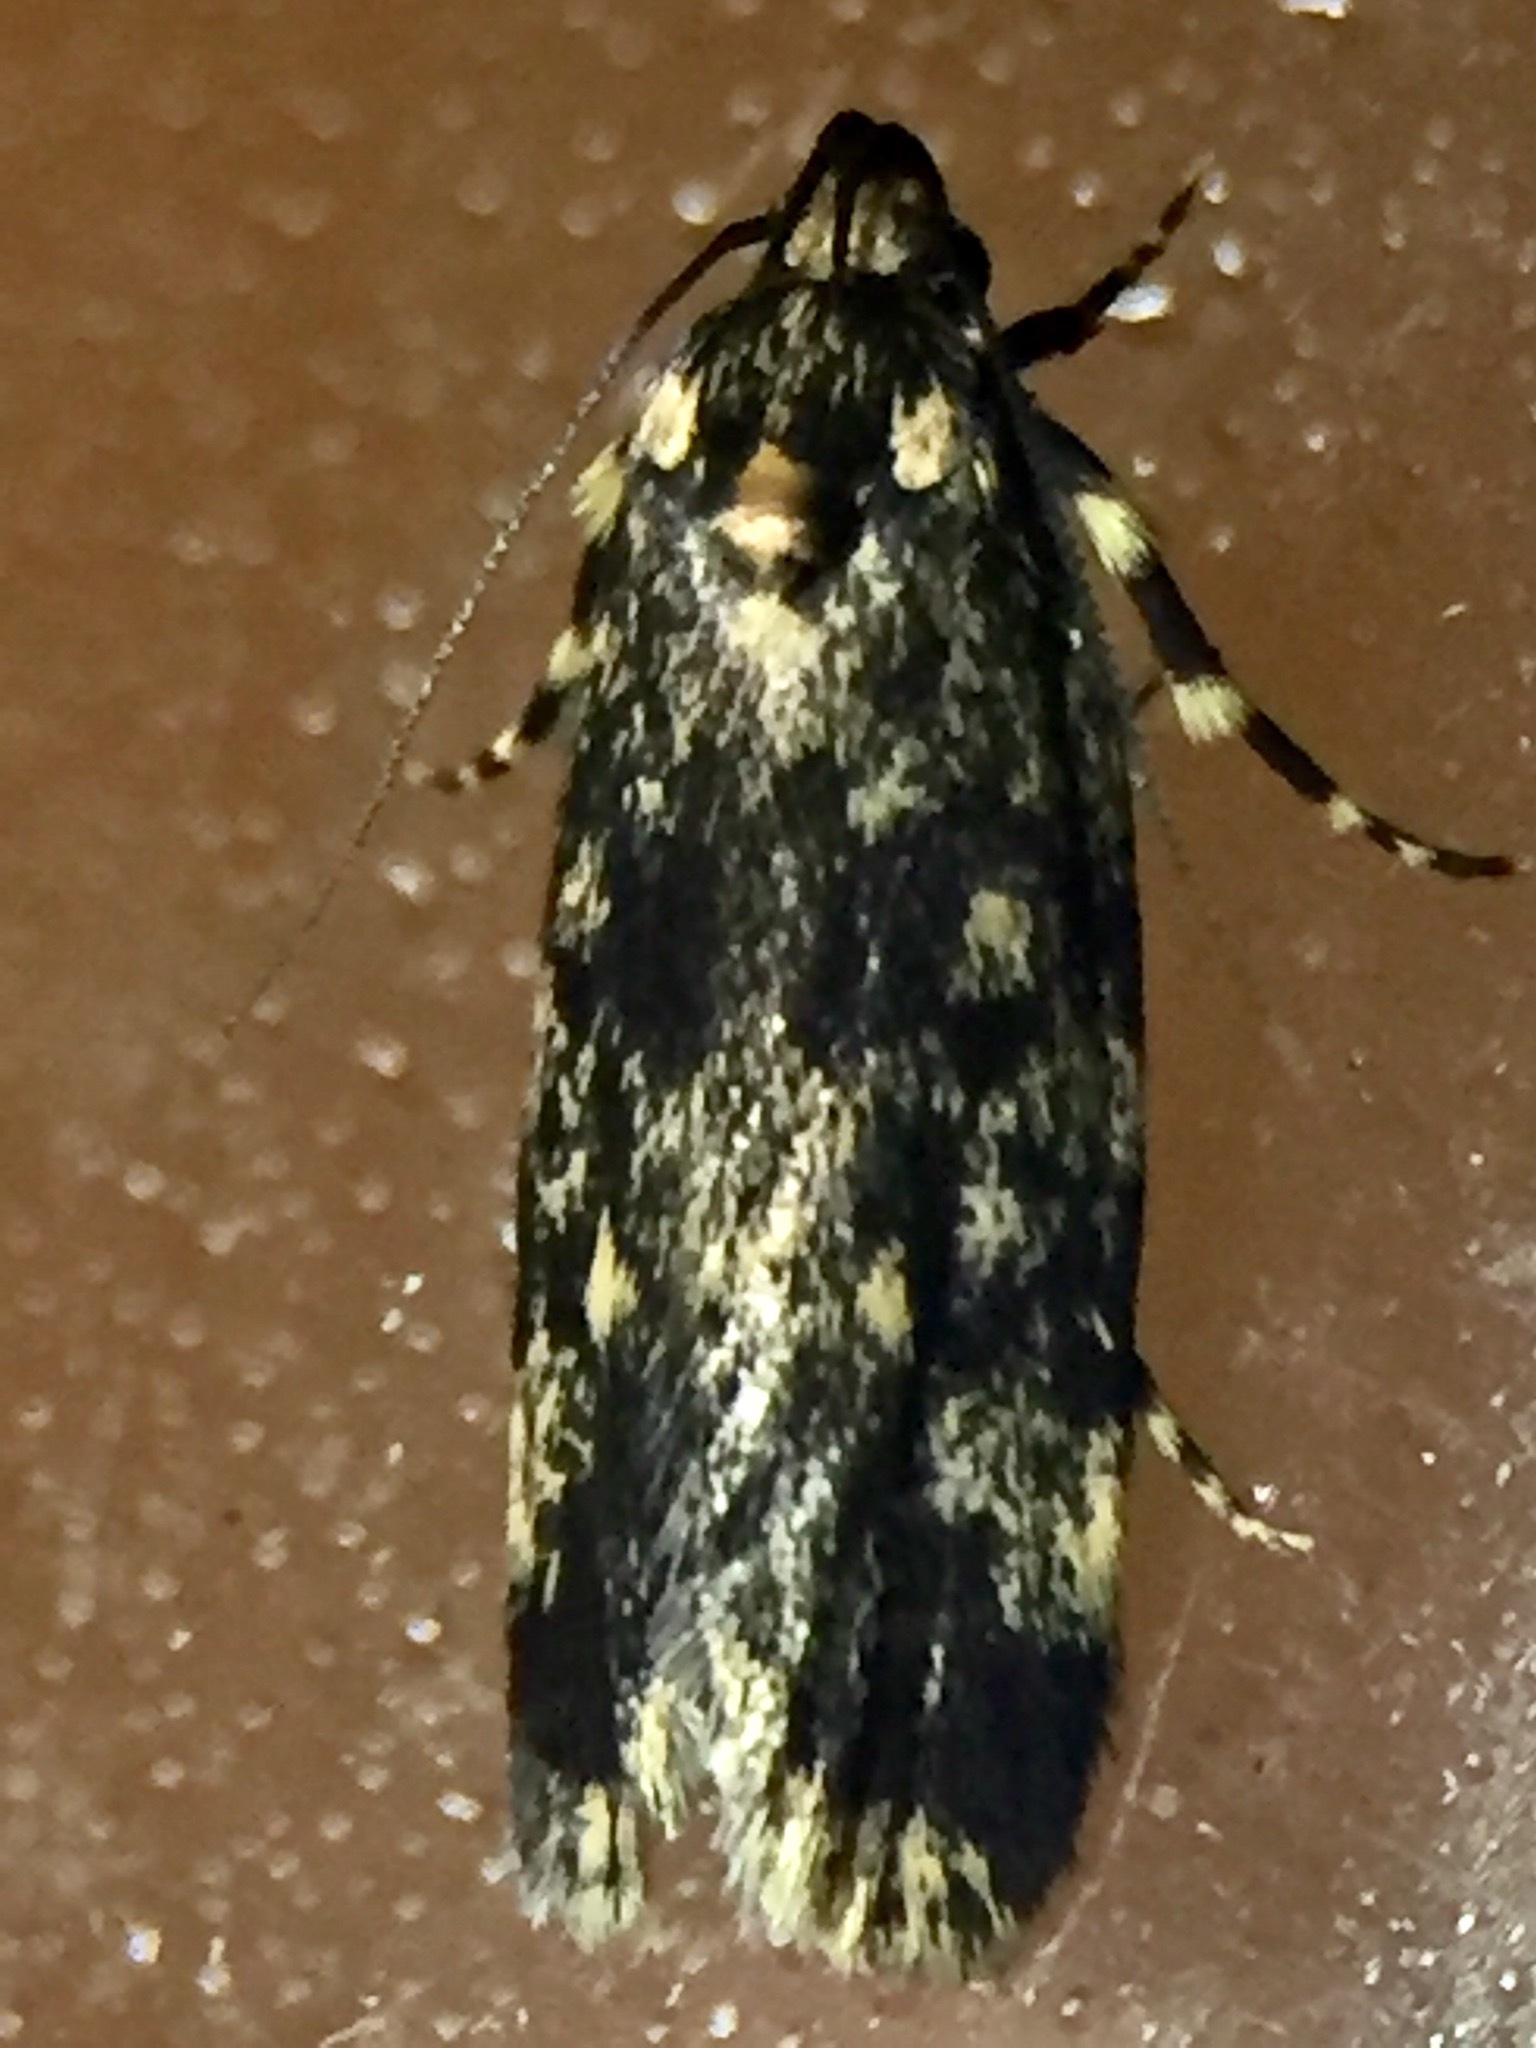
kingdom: Animalia
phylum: Arthropoda
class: Insecta
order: Lepidoptera
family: Oecophoridae
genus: Barea
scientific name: Barea codrella
